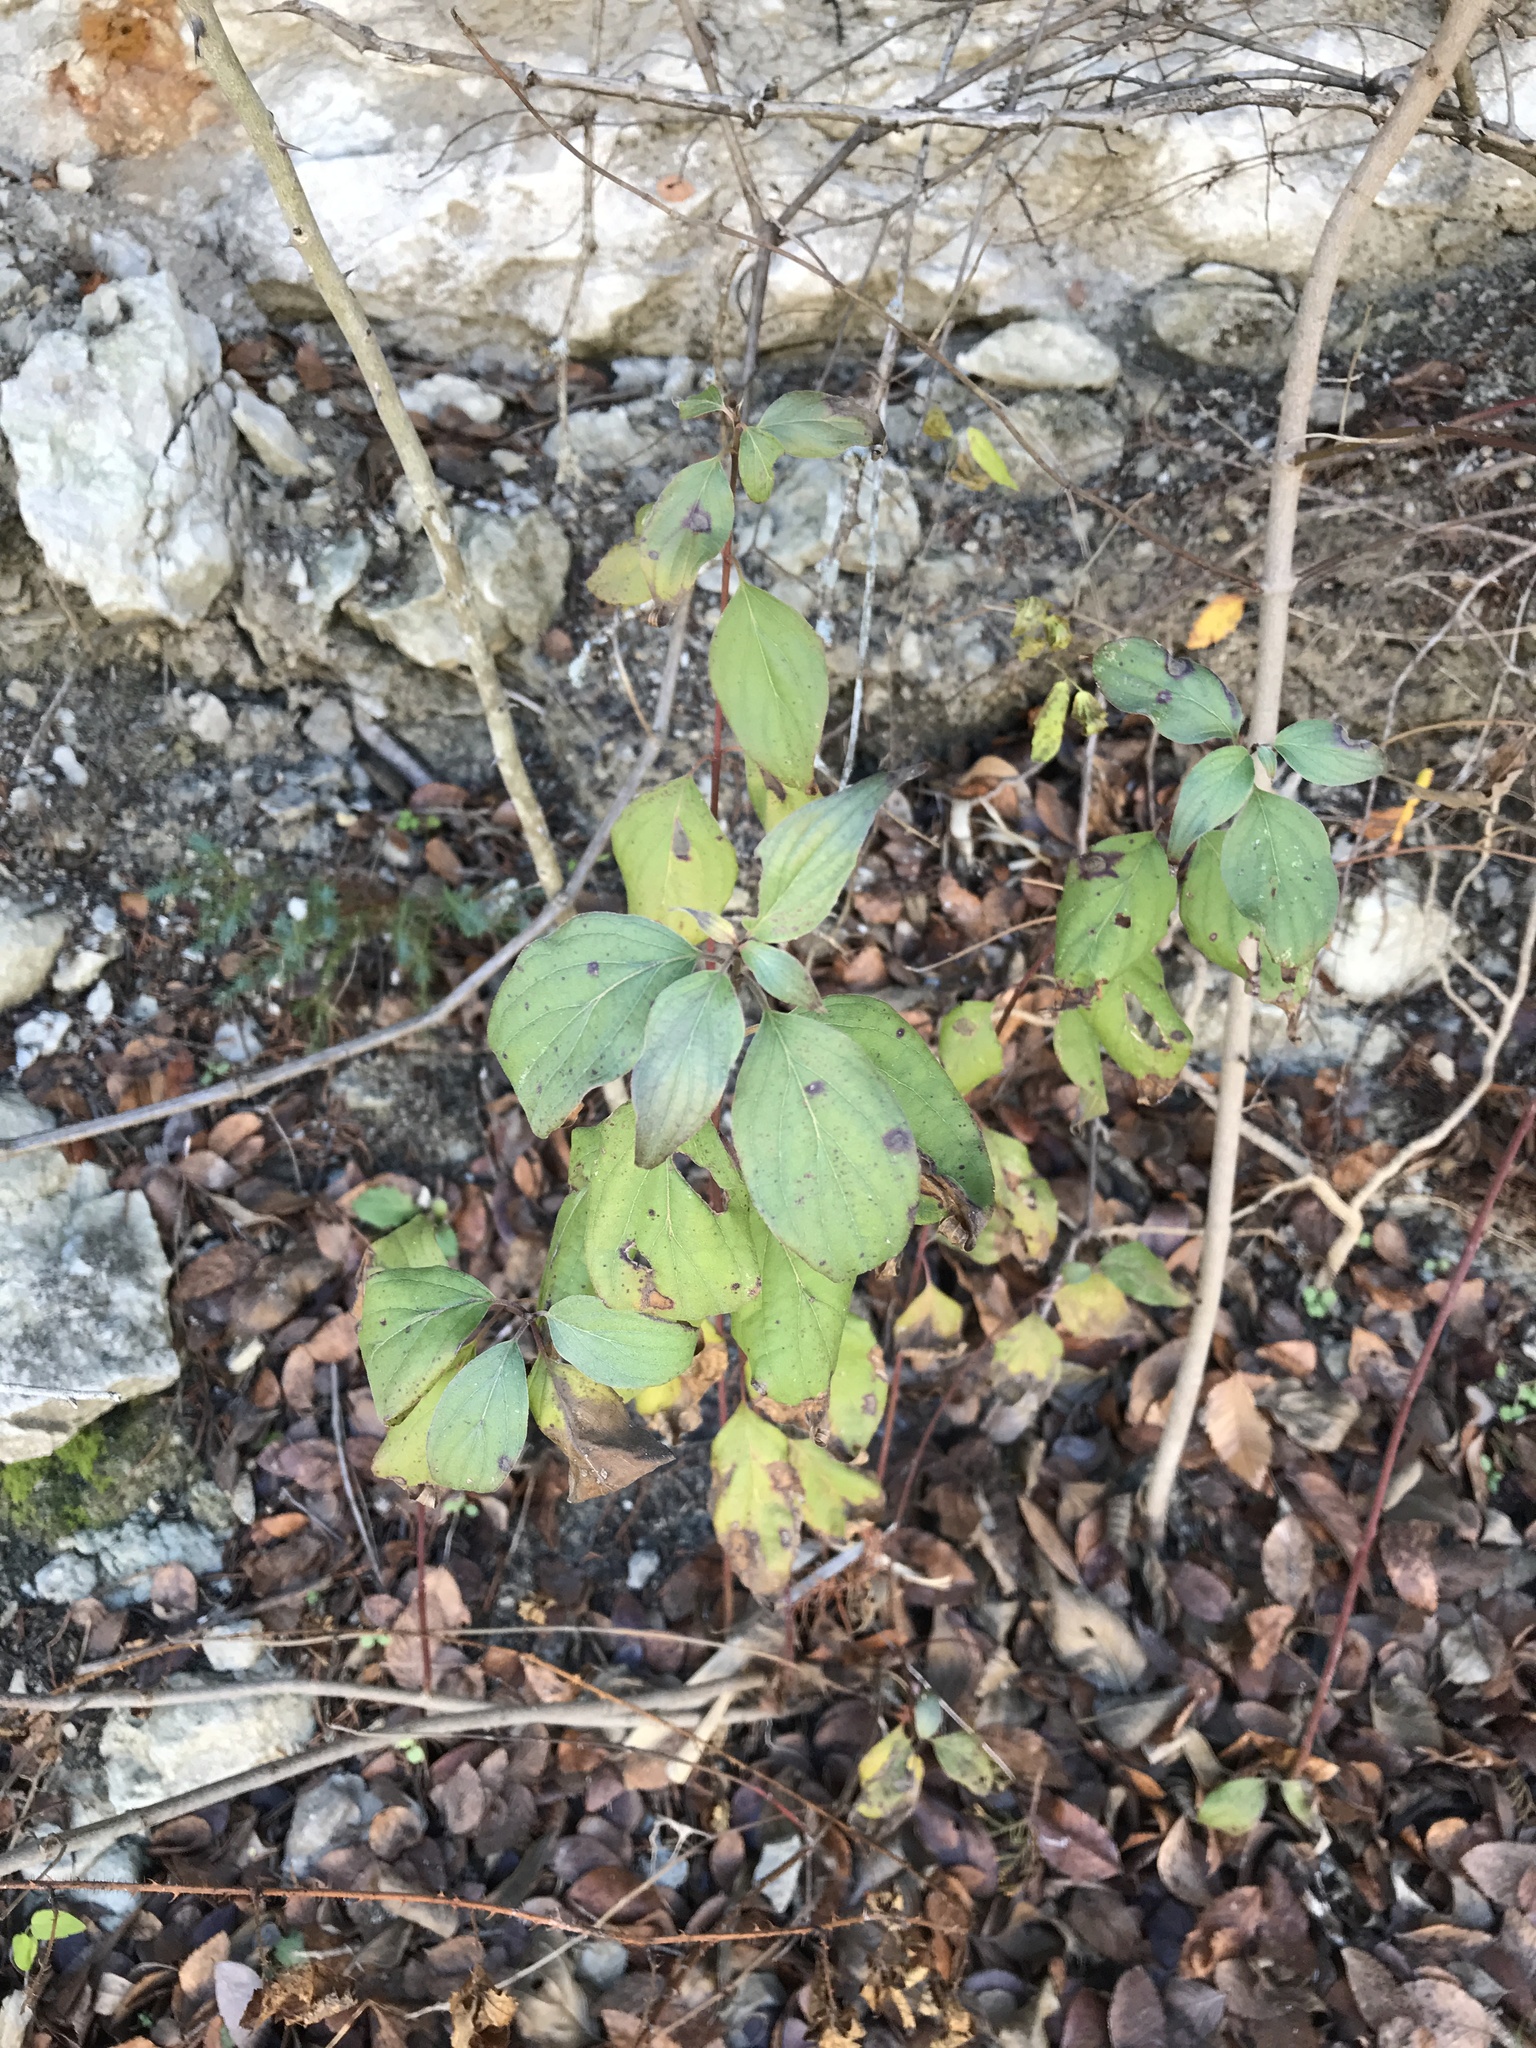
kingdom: Plantae
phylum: Tracheophyta
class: Magnoliopsida
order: Cornales
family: Cornaceae
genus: Cornus
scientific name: Cornus drummondii
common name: Rough-leaf dogwood
